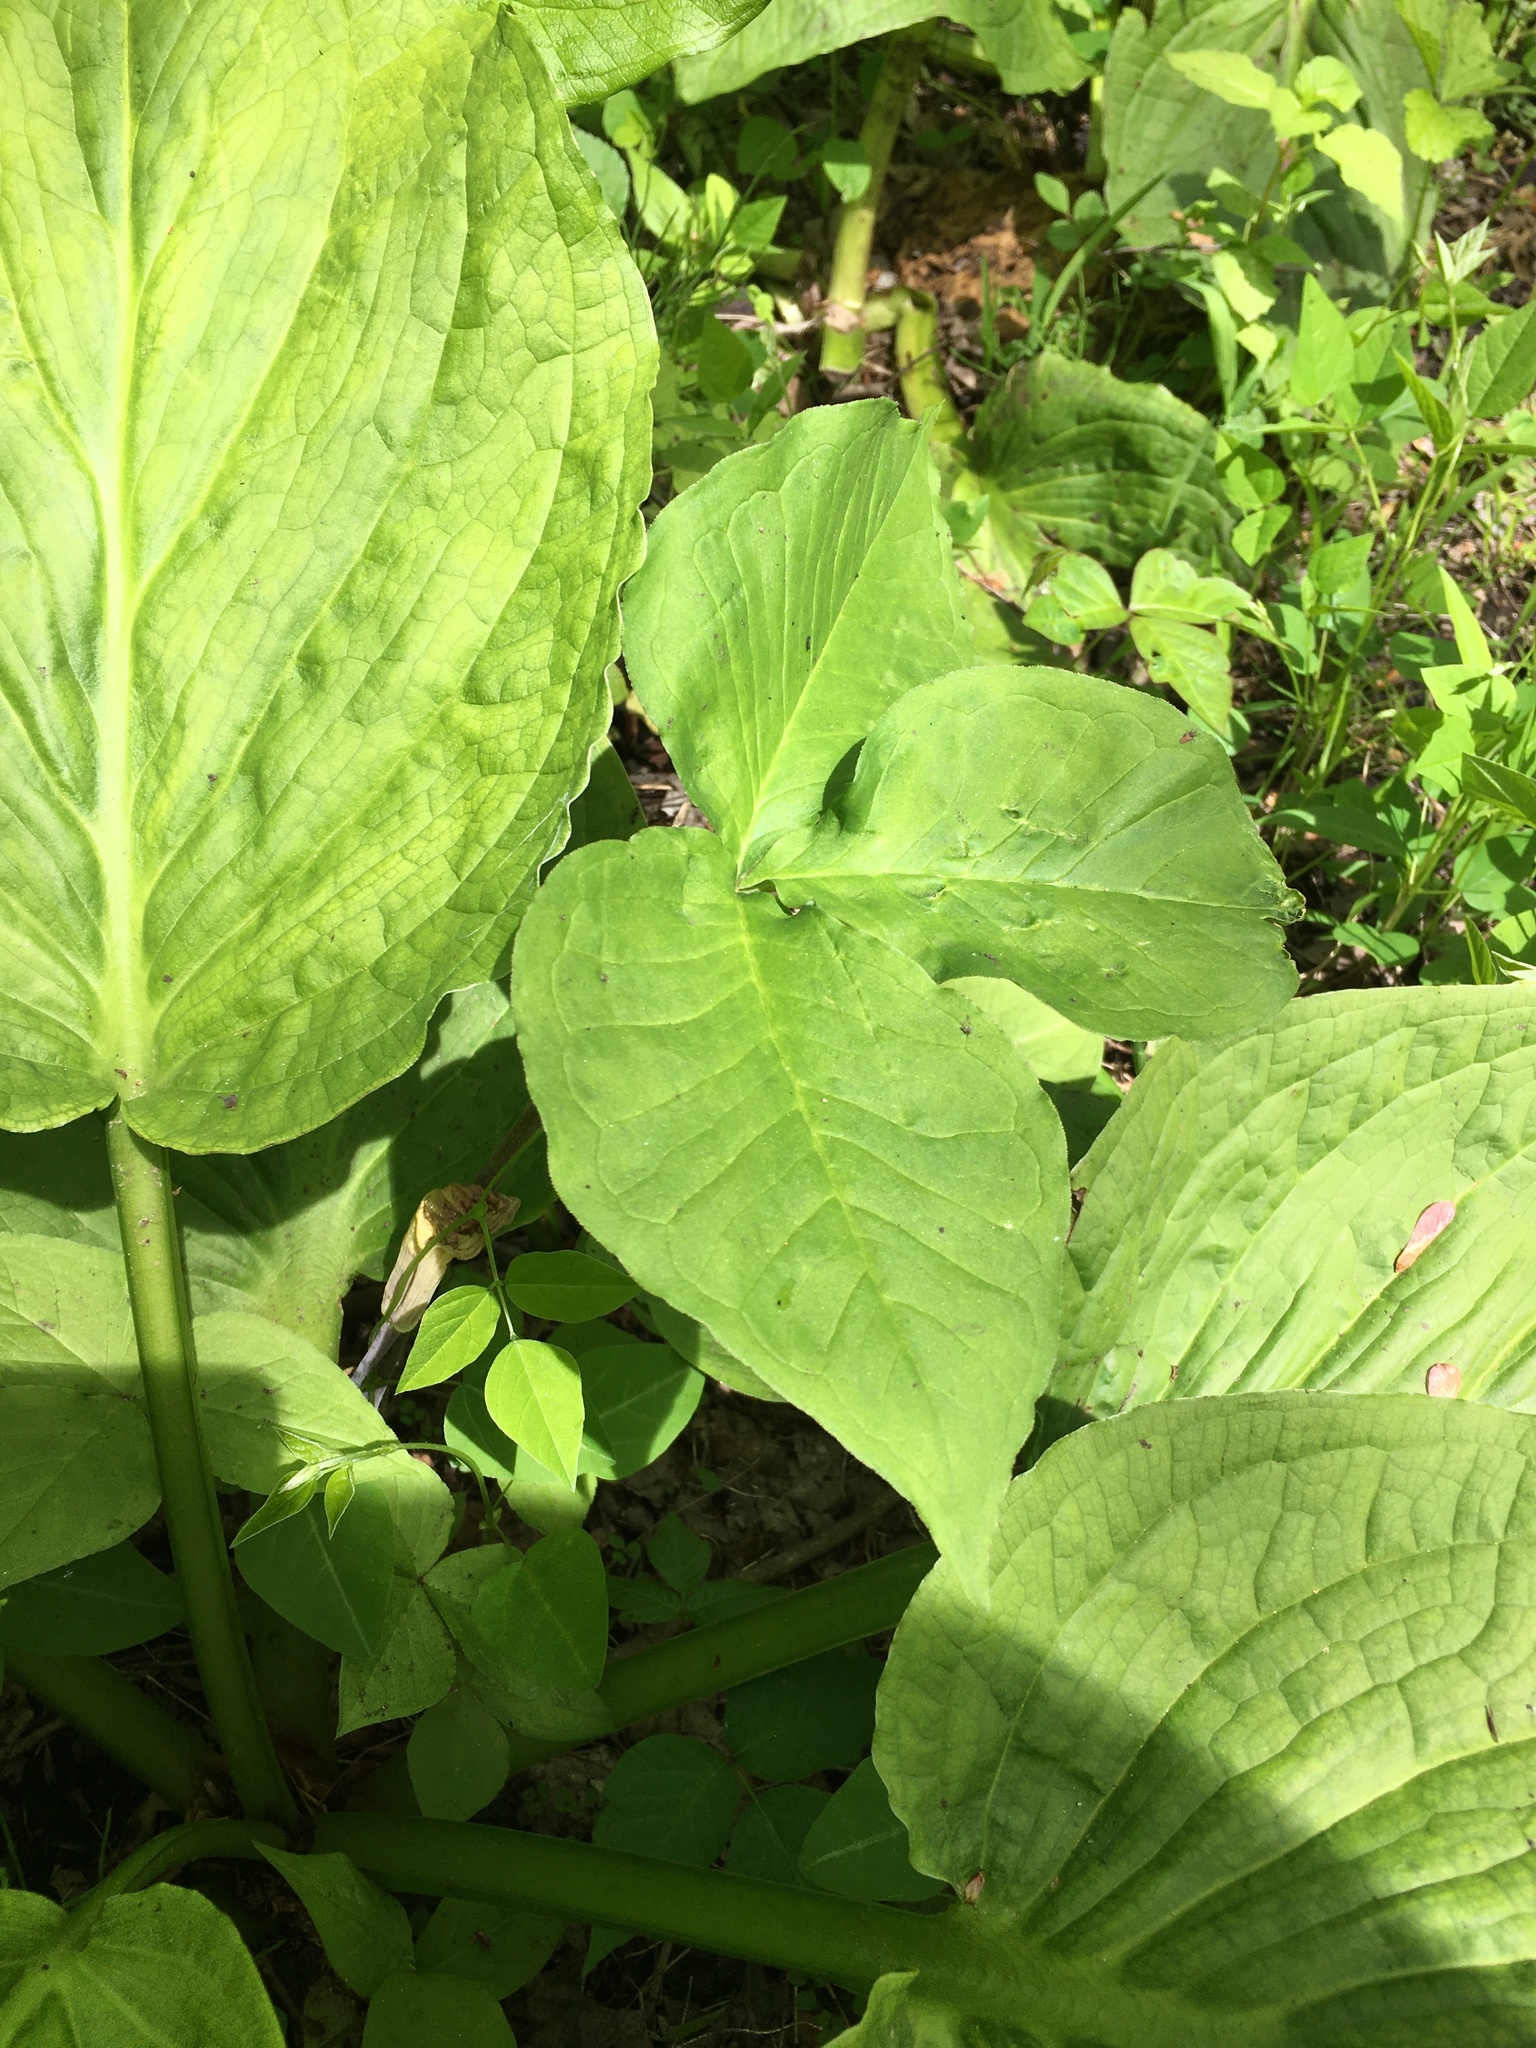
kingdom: Plantae
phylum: Tracheophyta
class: Liliopsida
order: Alismatales
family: Araceae
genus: Arisaema
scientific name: Arisaema triphyllum
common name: Jack-in-the-pulpit
